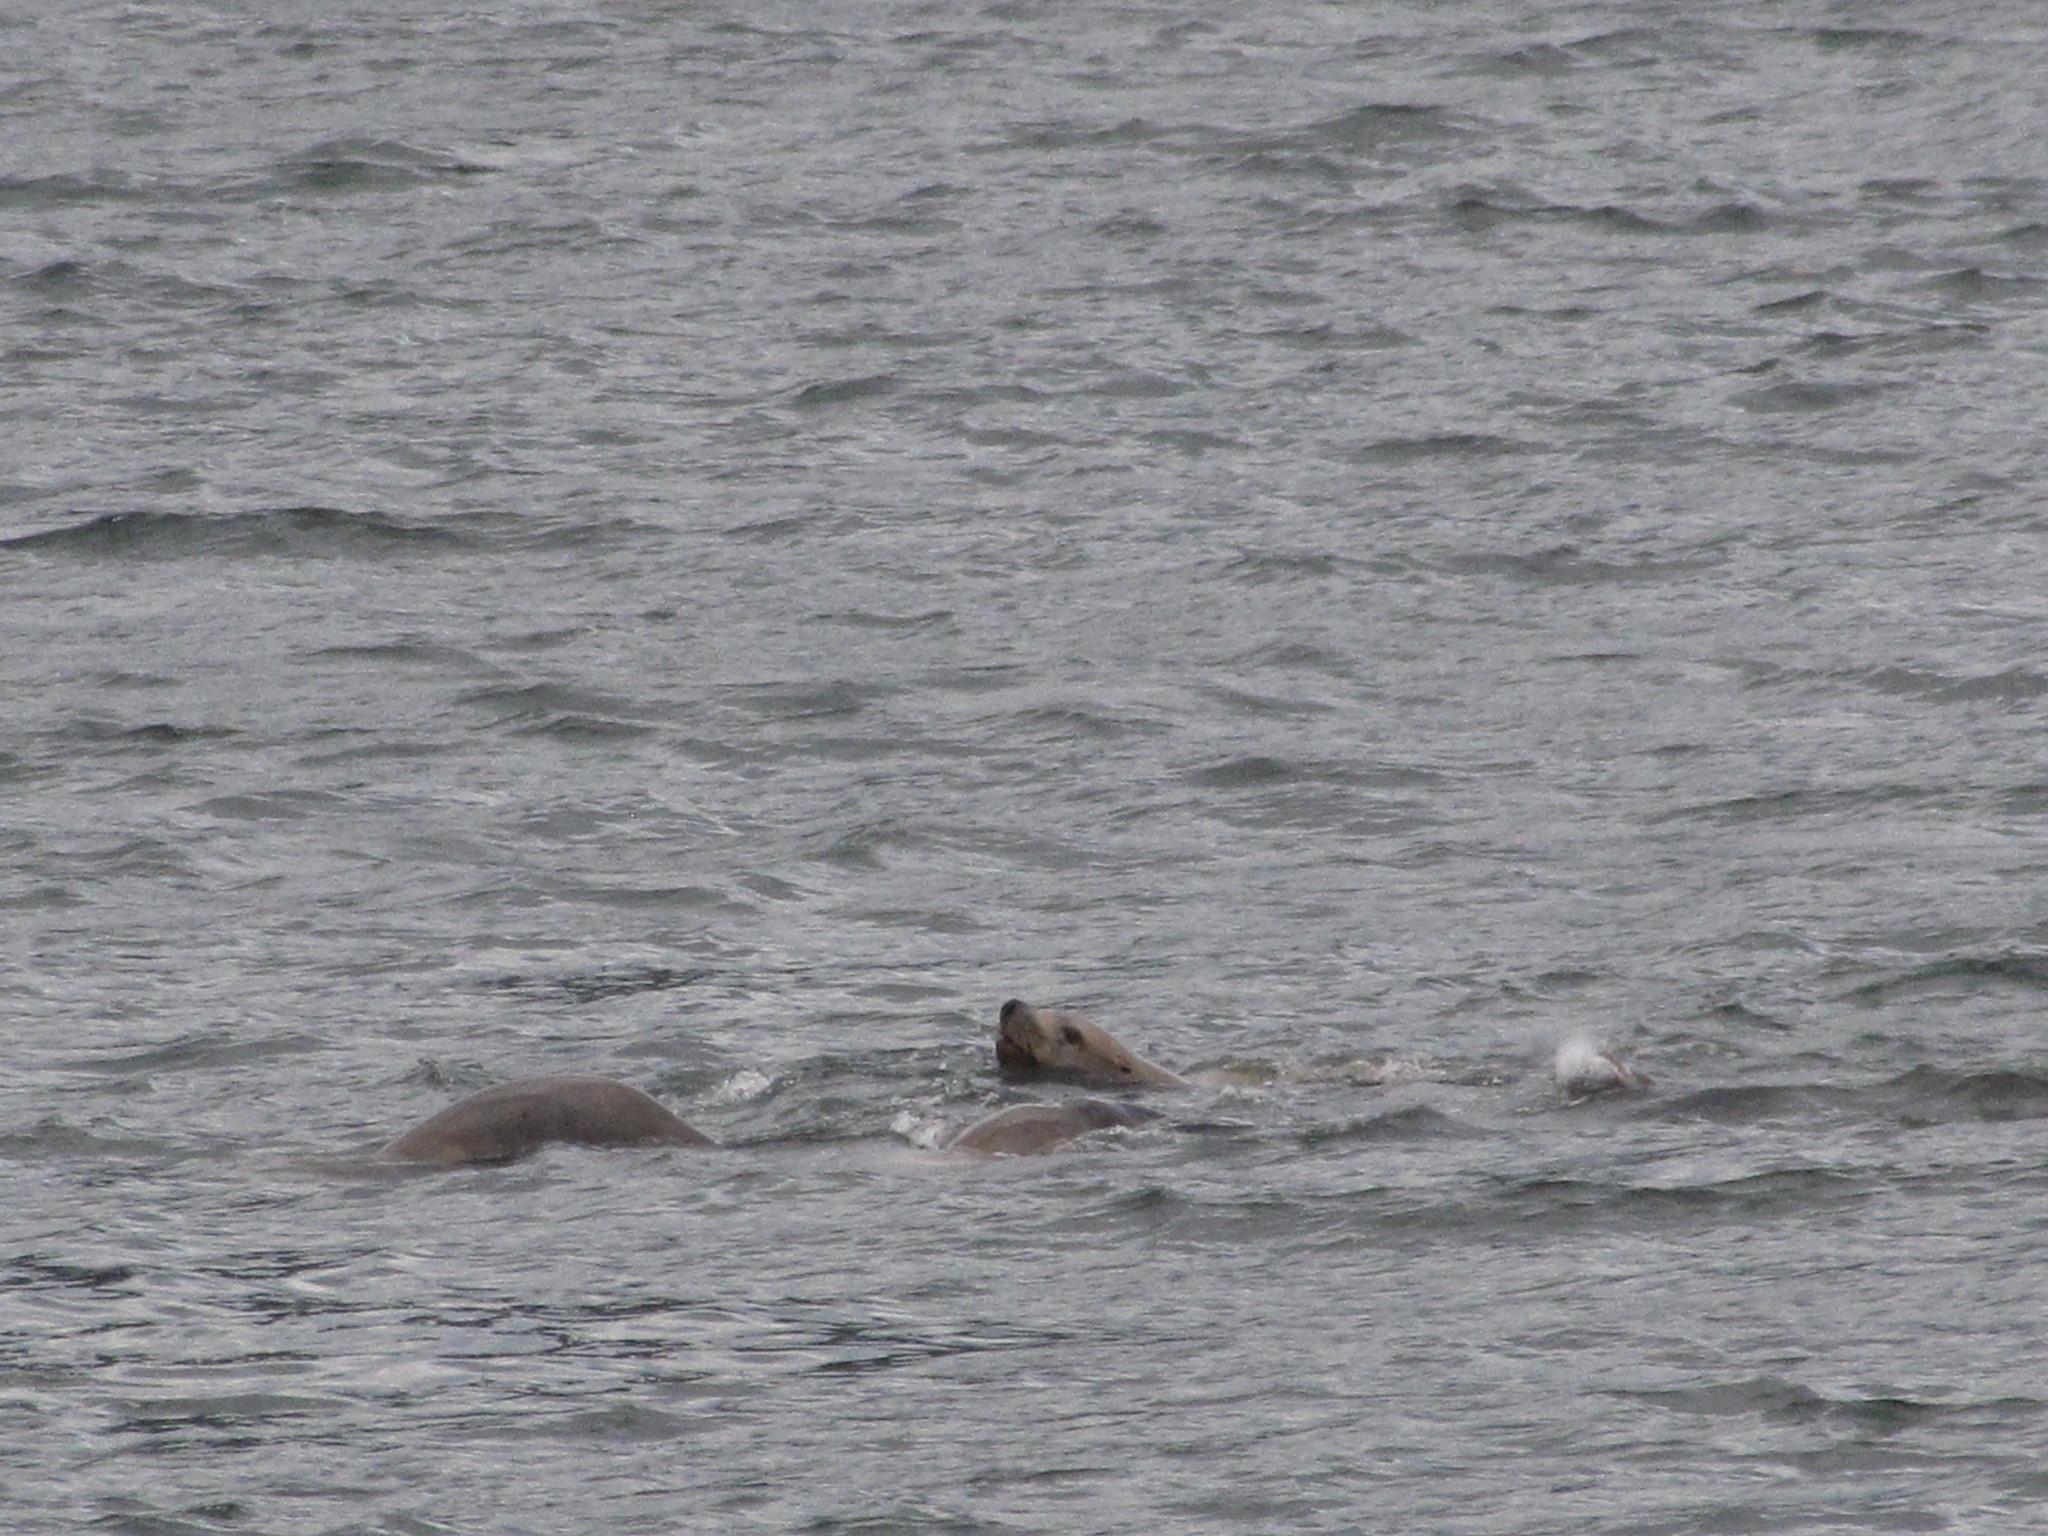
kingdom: Animalia
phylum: Chordata
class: Mammalia
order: Carnivora
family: Otariidae
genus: Eumetopias
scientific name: Eumetopias jubatus
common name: Steller sea lion
